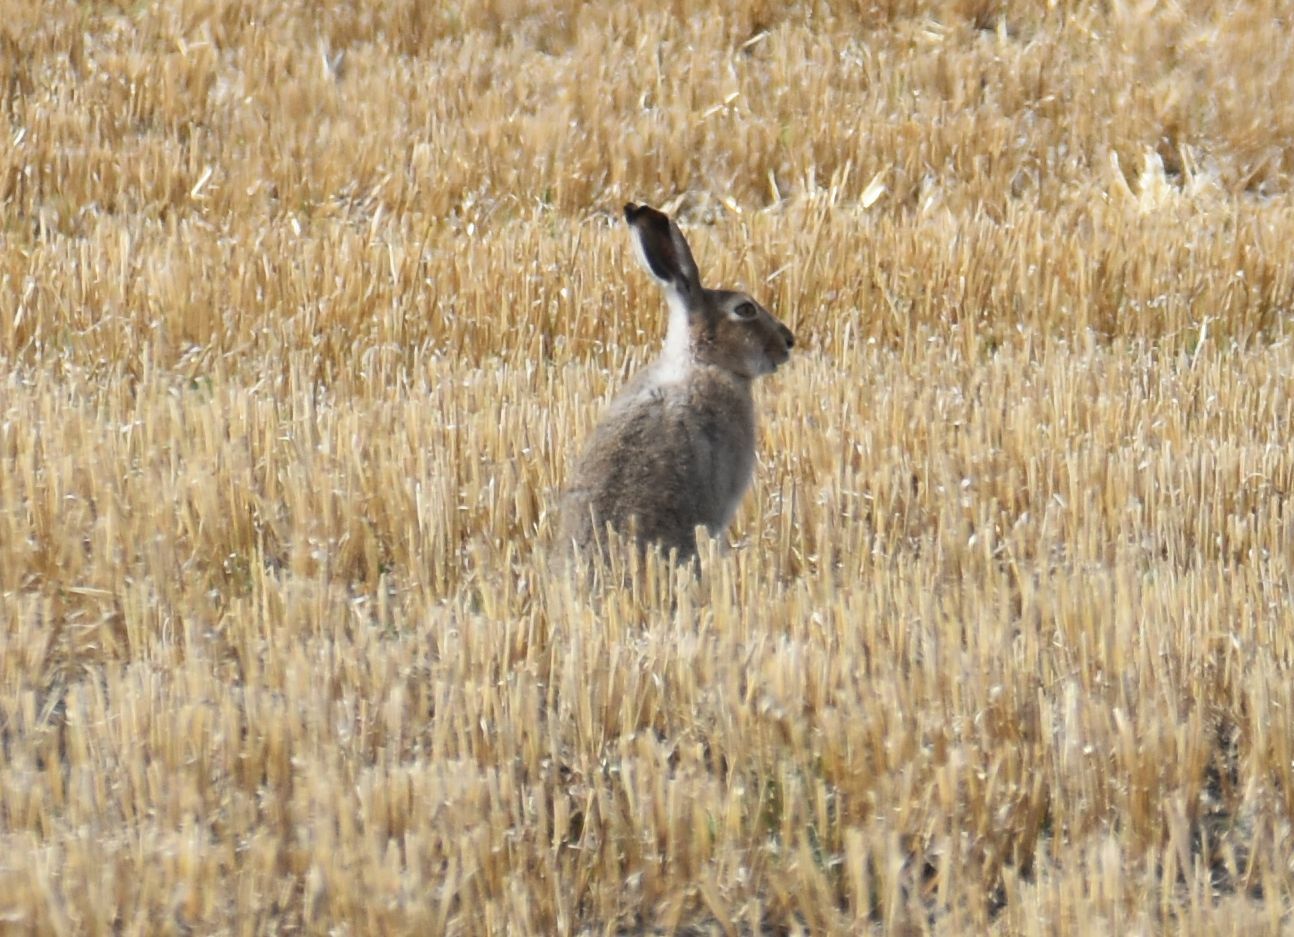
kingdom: Animalia
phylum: Chordata
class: Mammalia
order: Lagomorpha
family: Leporidae
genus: Lepus
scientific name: Lepus townsendii
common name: White-tailed jackrabbit
